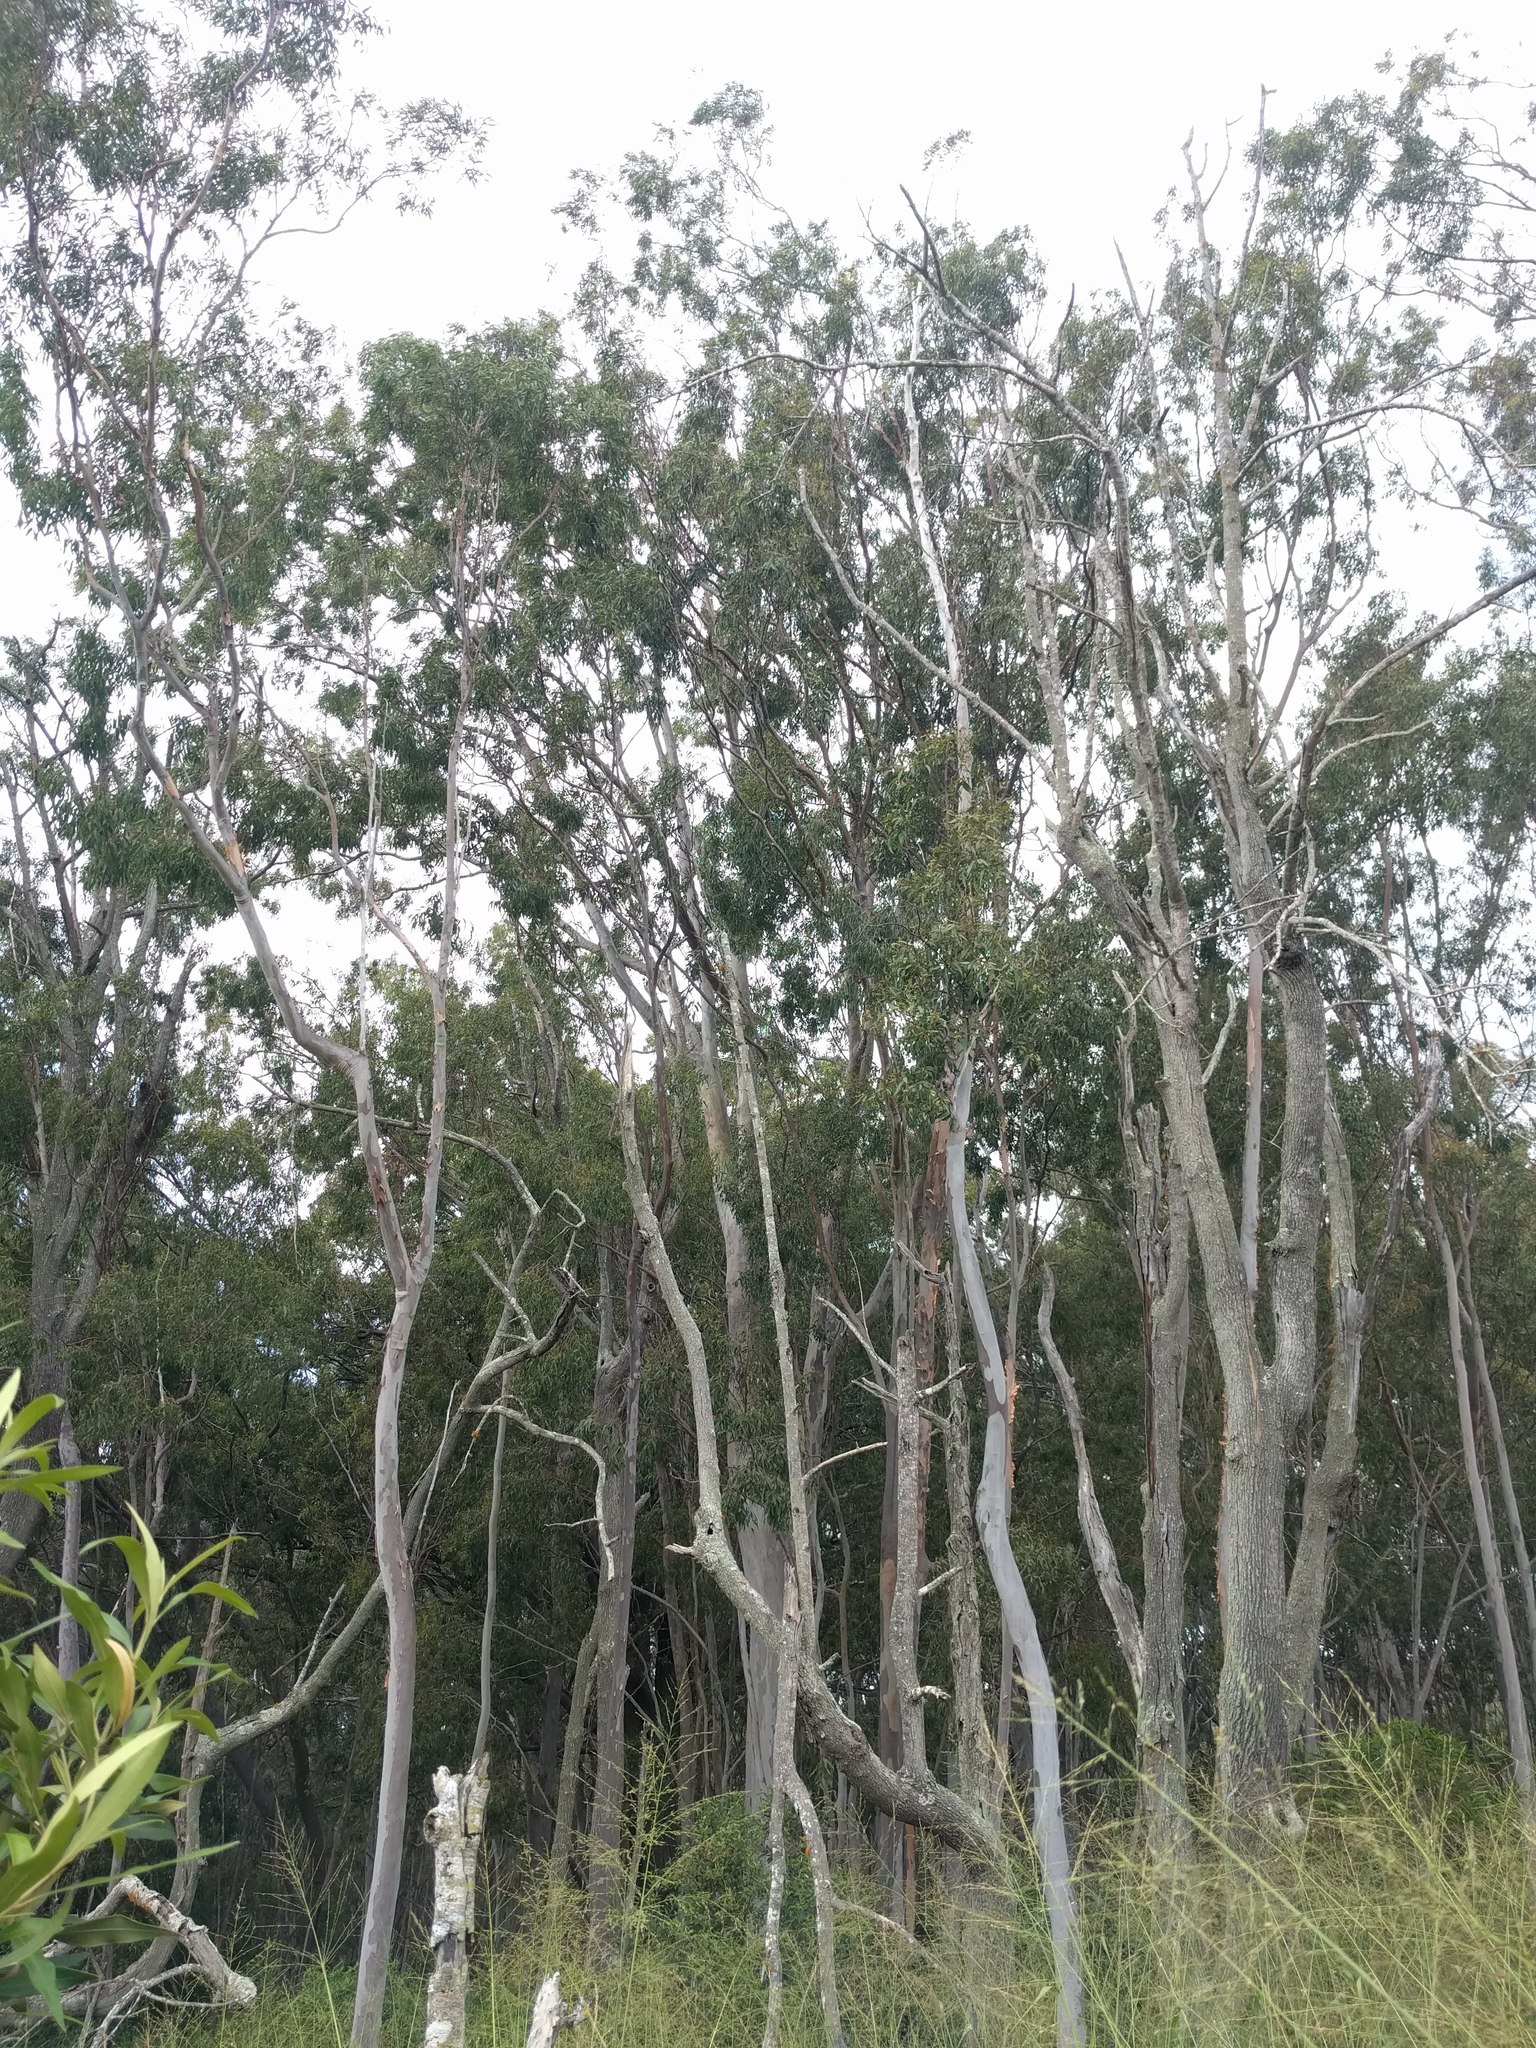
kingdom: Plantae
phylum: Tracheophyta
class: Magnoliopsida
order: Myrtales
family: Myrtaceae
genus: Corymbia
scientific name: Corymbia citriodora
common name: Lemonscented gum
